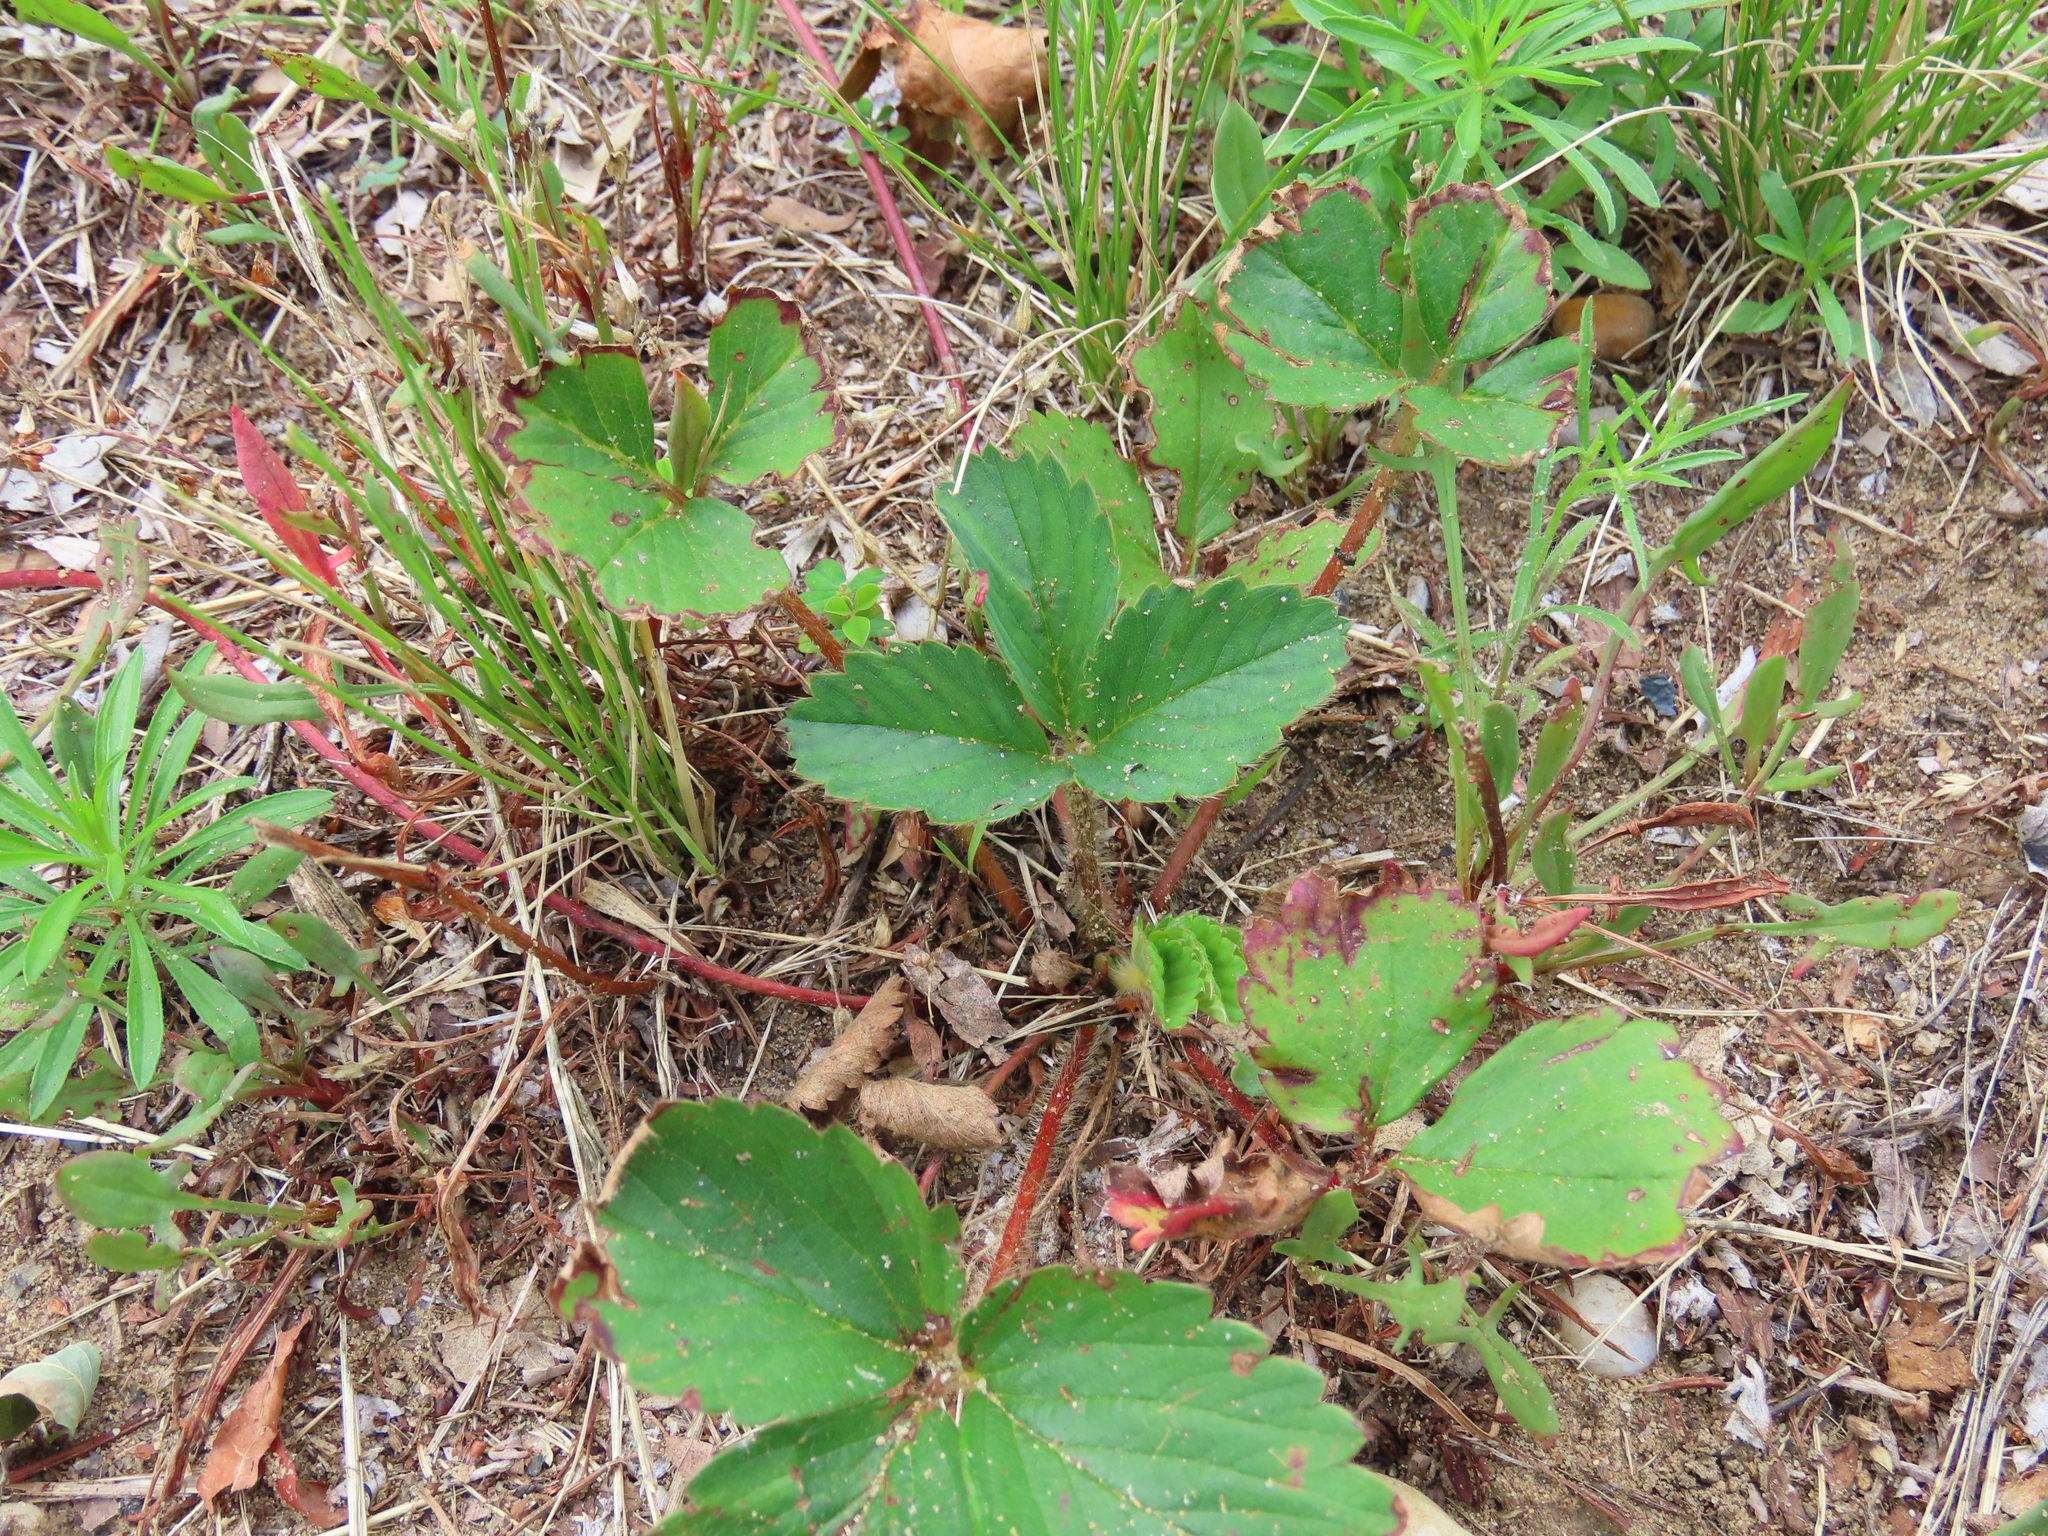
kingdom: Plantae
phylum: Tracheophyta
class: Magnoliopsida
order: Rosales
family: Rosaceae
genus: Fragaria
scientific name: Fragaria virginiana
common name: Thickleaved wild strawberry
